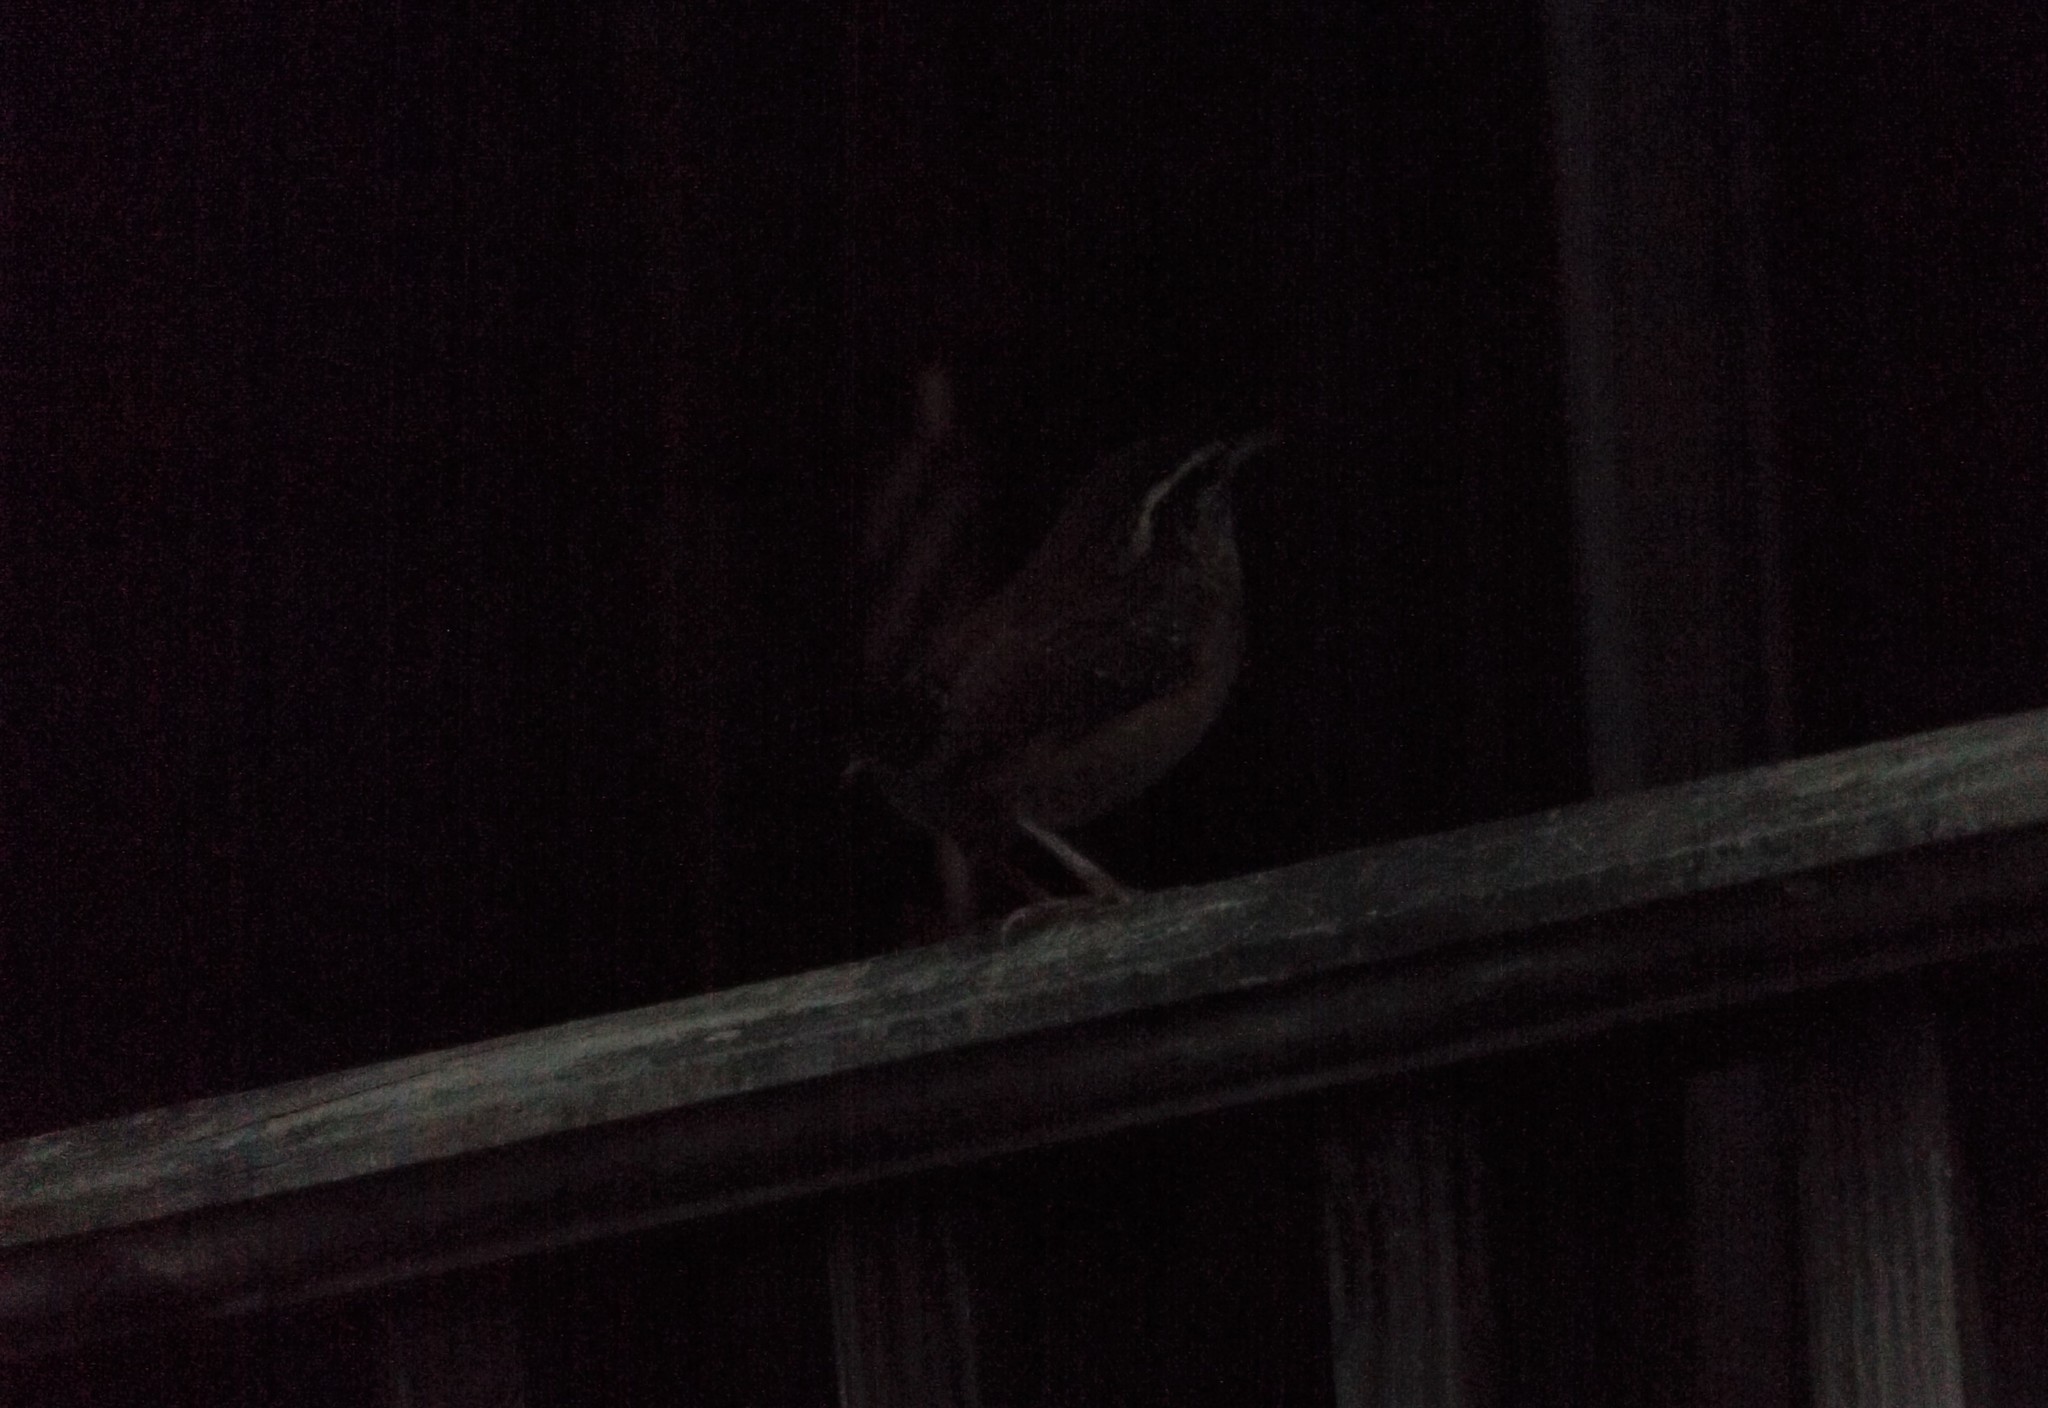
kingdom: Animalia
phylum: Chordata
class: Aves
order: Passeriformes
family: Sittidae
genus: Sitta
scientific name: Sitta canadensis
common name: Red-breasted nuthatch
